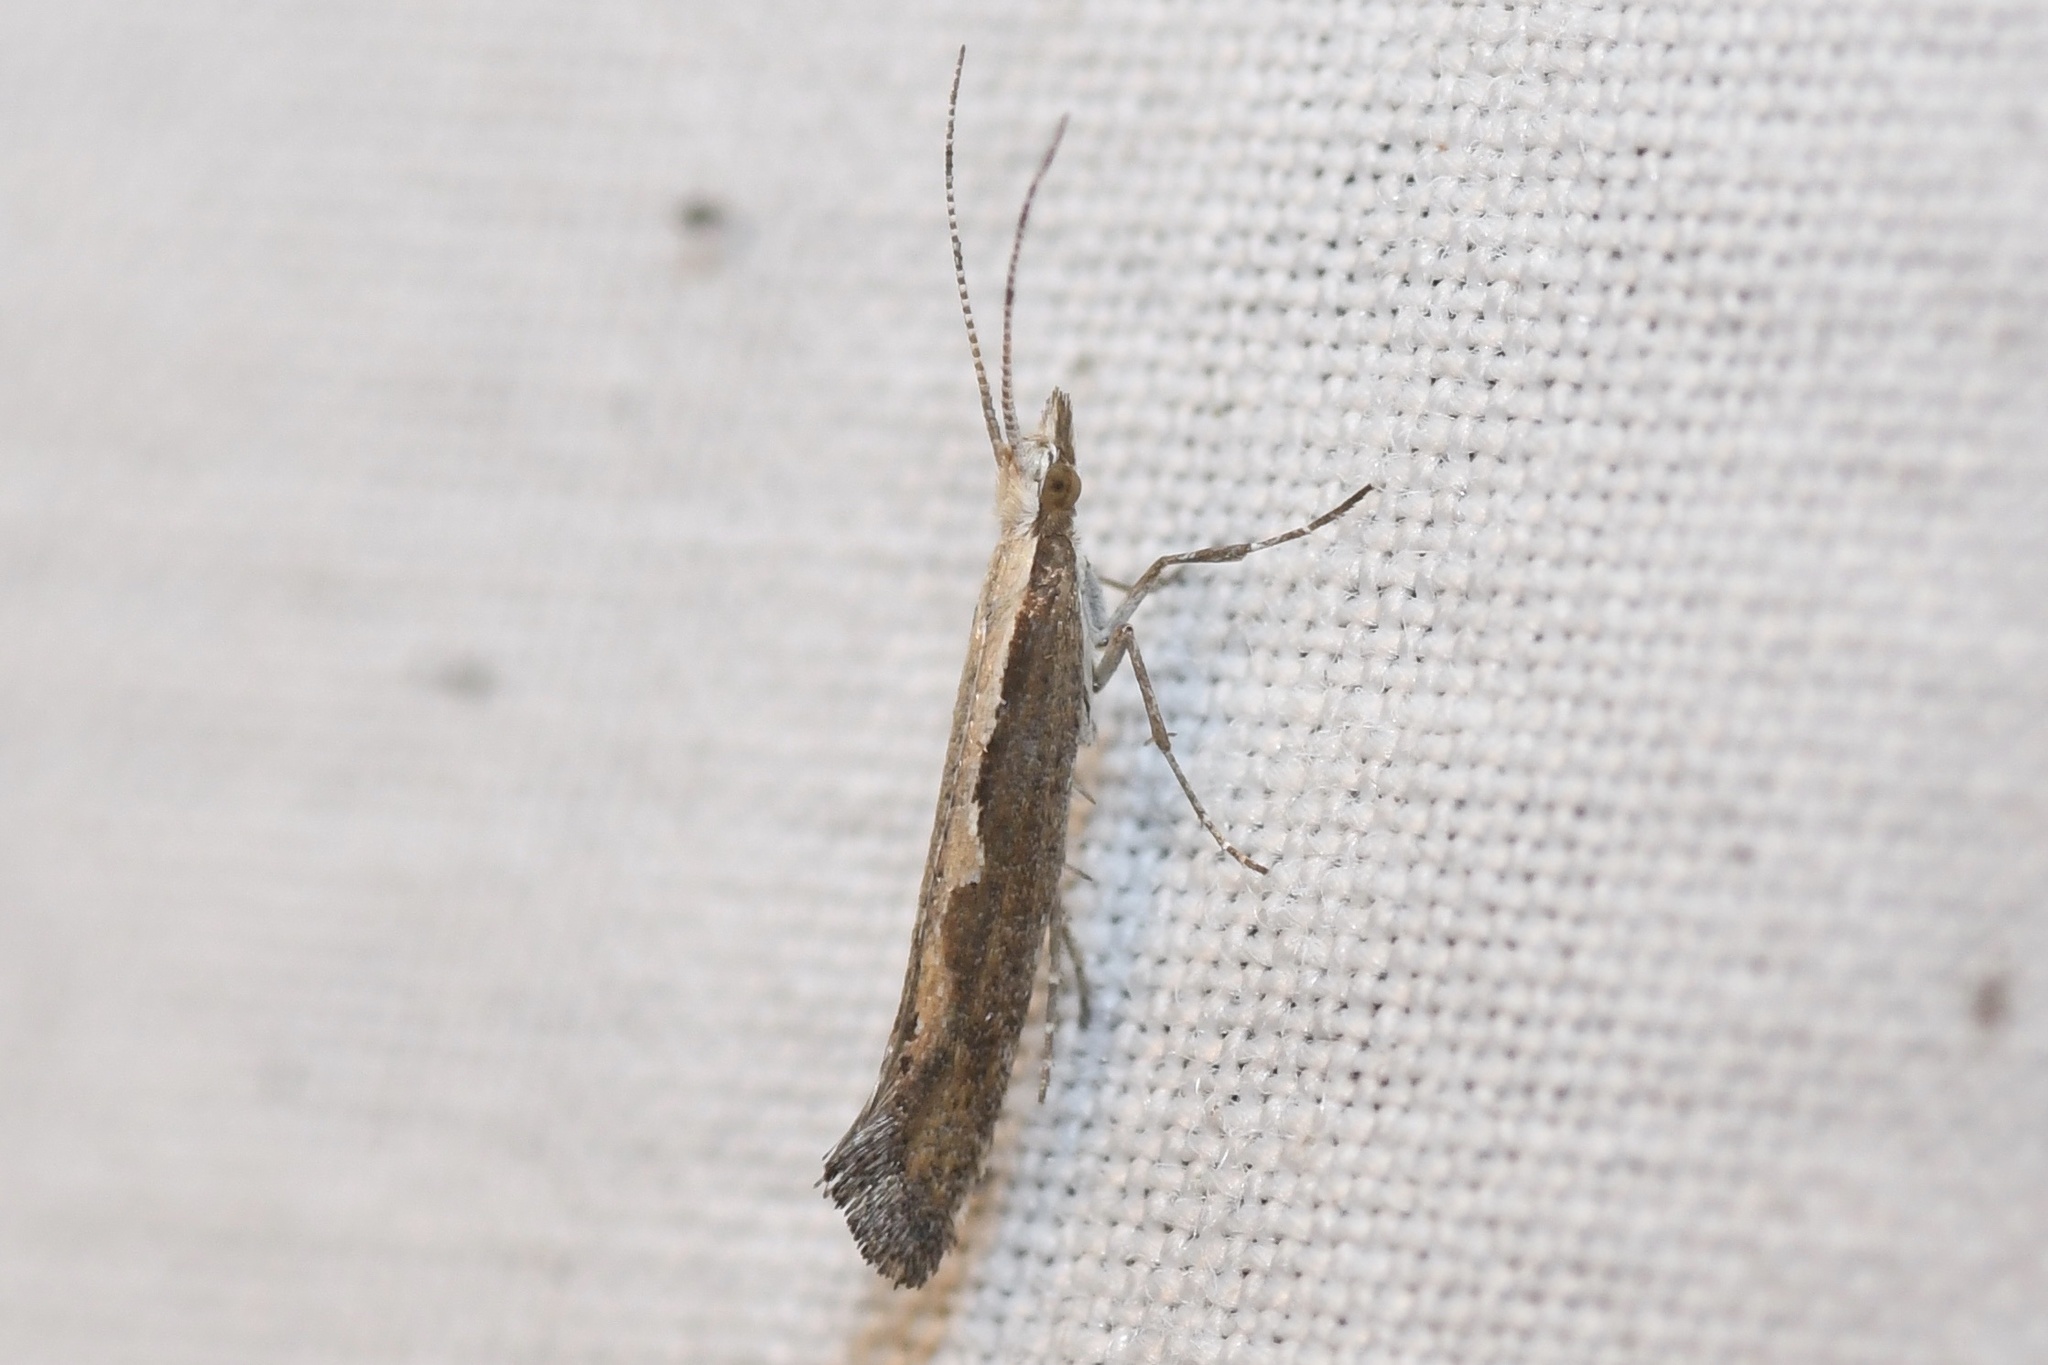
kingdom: Animalia
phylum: Arthropoda
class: Insecta
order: Lepidoptera
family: Plutellidae
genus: Plutella
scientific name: Plutella xylostella
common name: Diamond-back moth
